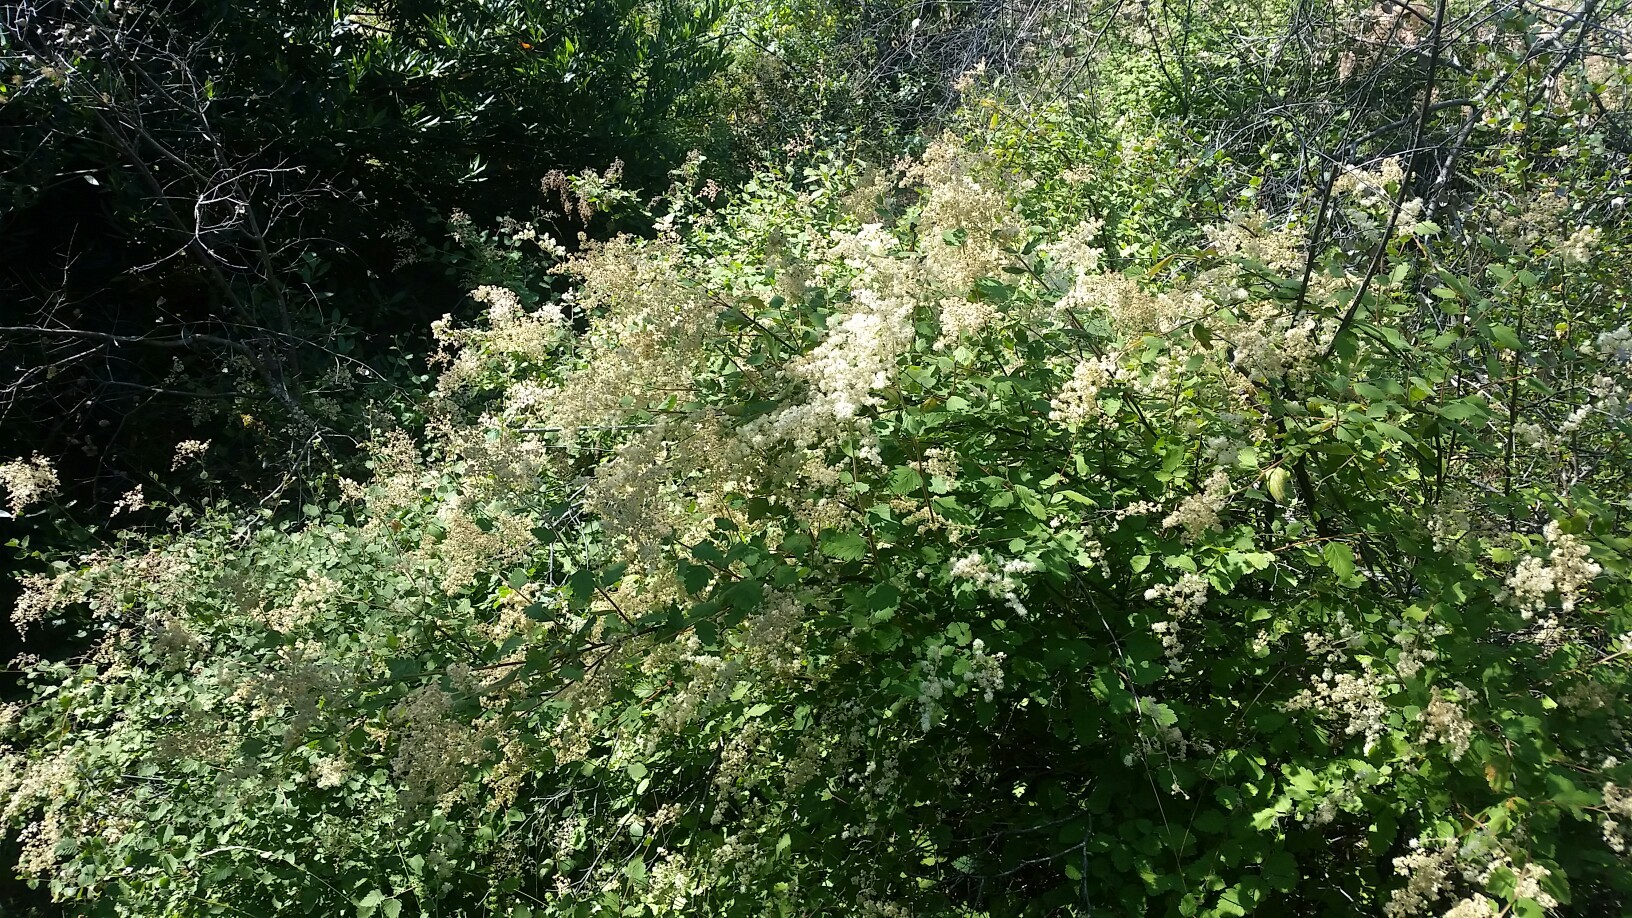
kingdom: Plantae
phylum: Tracheophyta
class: Magnoliopsida
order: Rosales
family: Rosaceae
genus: Holodiscus
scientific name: Holodiscus discolor
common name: Oceanspray
